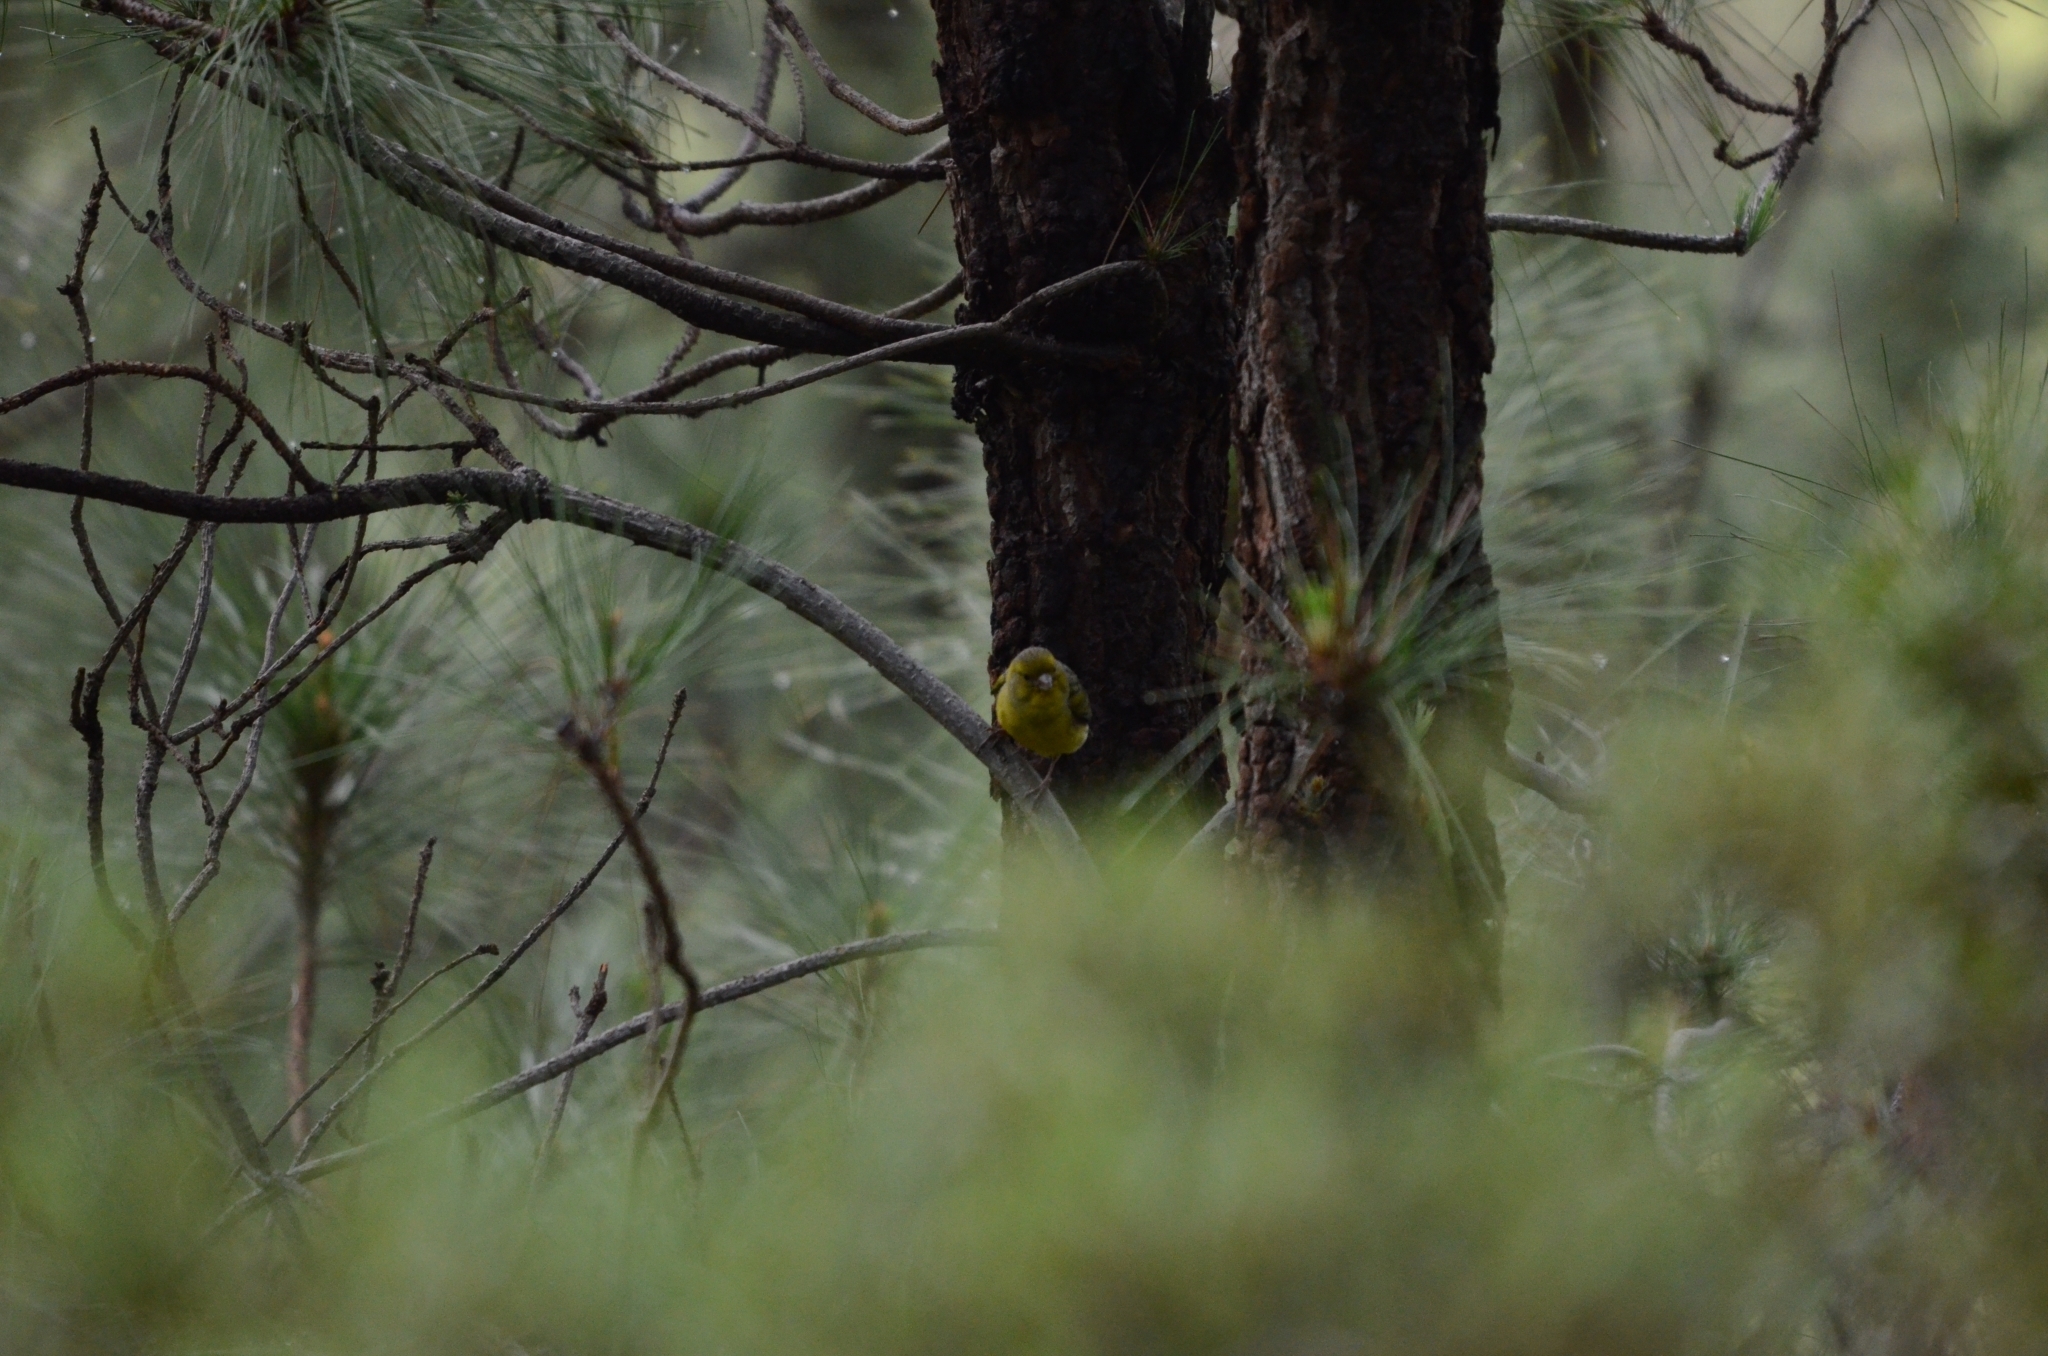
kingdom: Animalia
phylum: Chordata
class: Aves
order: Passeriformes
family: Fringillidae
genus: Serinus
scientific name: Serinus canaria
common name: Atlantic canary
